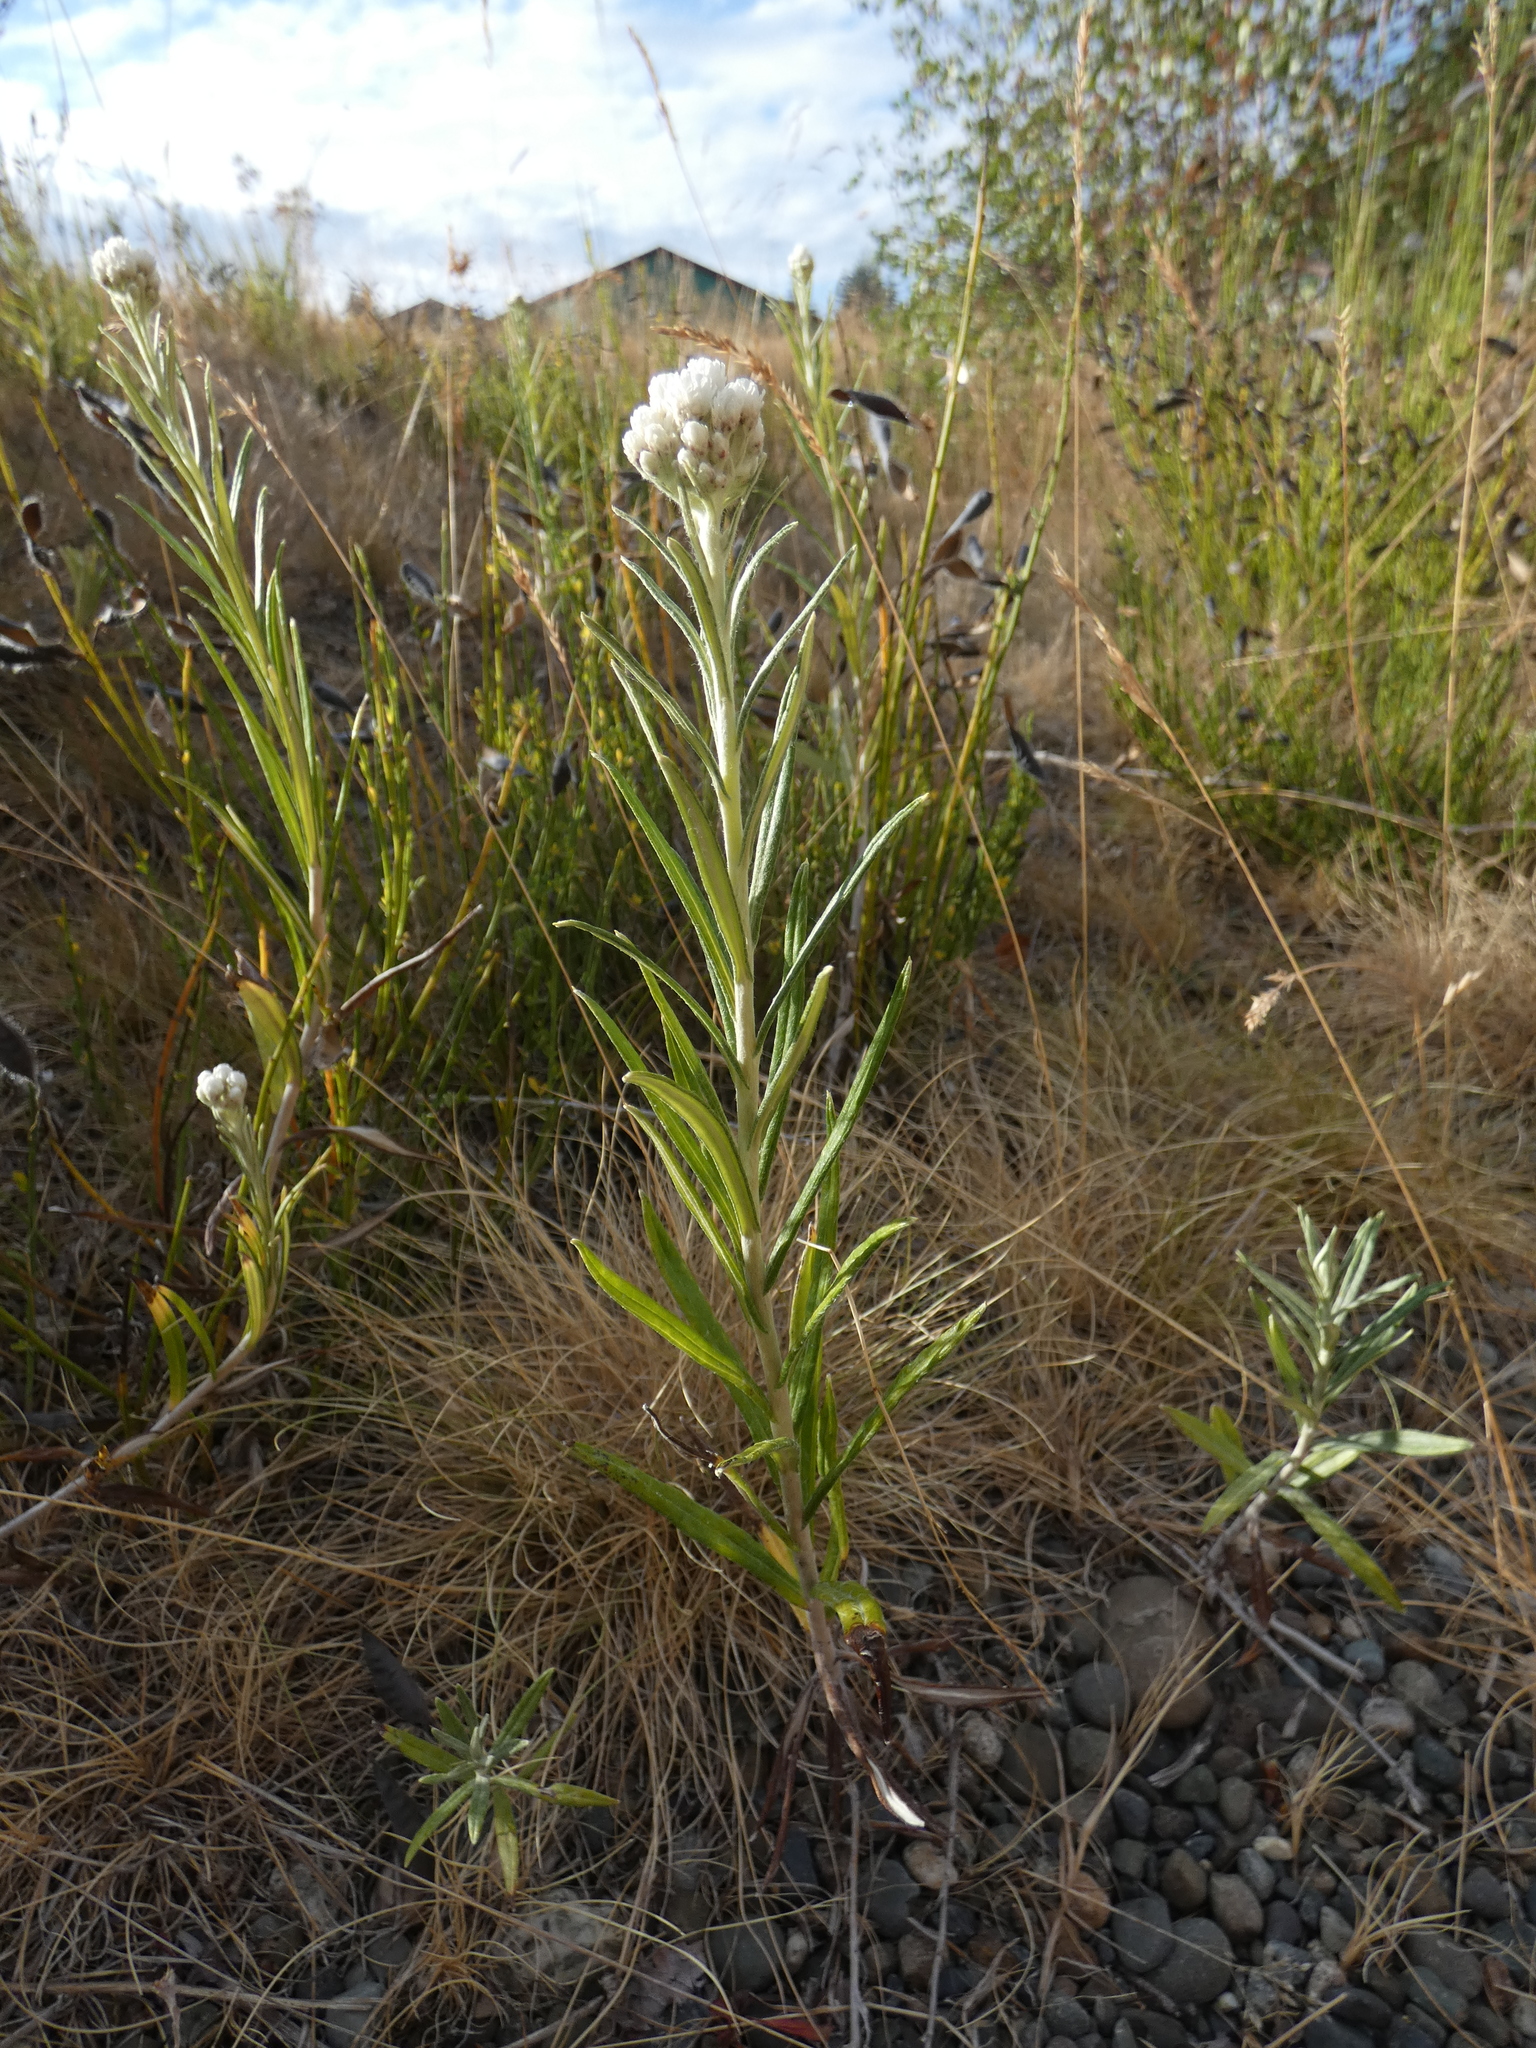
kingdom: Plantae
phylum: Tracheophyta
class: Magnoliopsida
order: Asterales
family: Asteraceae
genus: Anaphalis
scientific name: Anaphalis margaritacea
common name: Pearly everlasting
